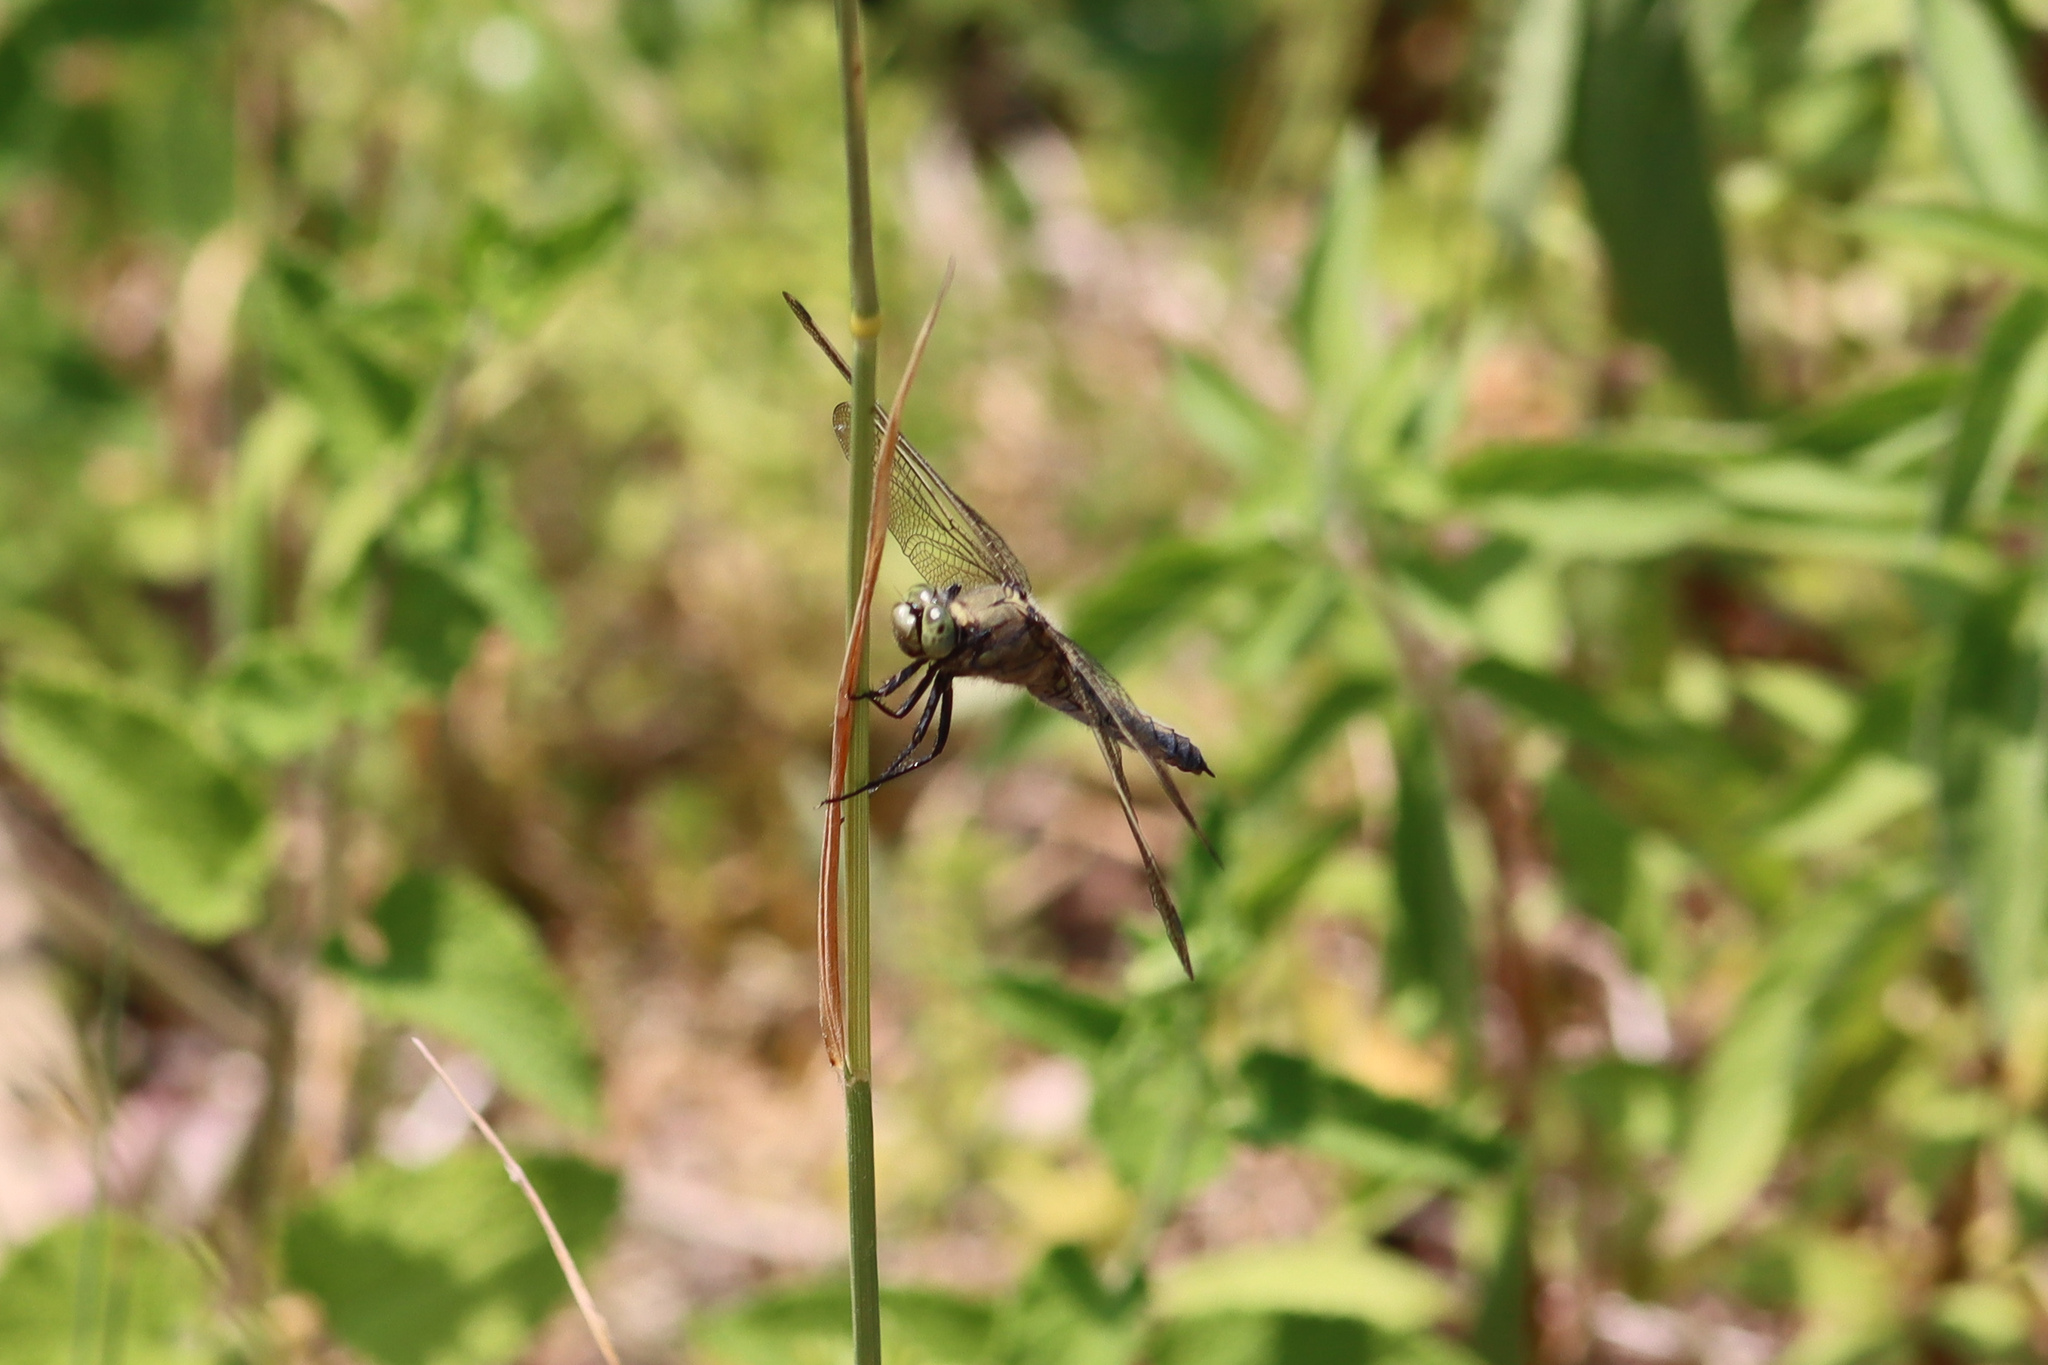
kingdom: Animalia
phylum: Arthropoda
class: Insecta
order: Odonata
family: Libellulidae
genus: Orthetrum
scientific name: Orthetrum cancellatum
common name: Black-tailed skimmer
